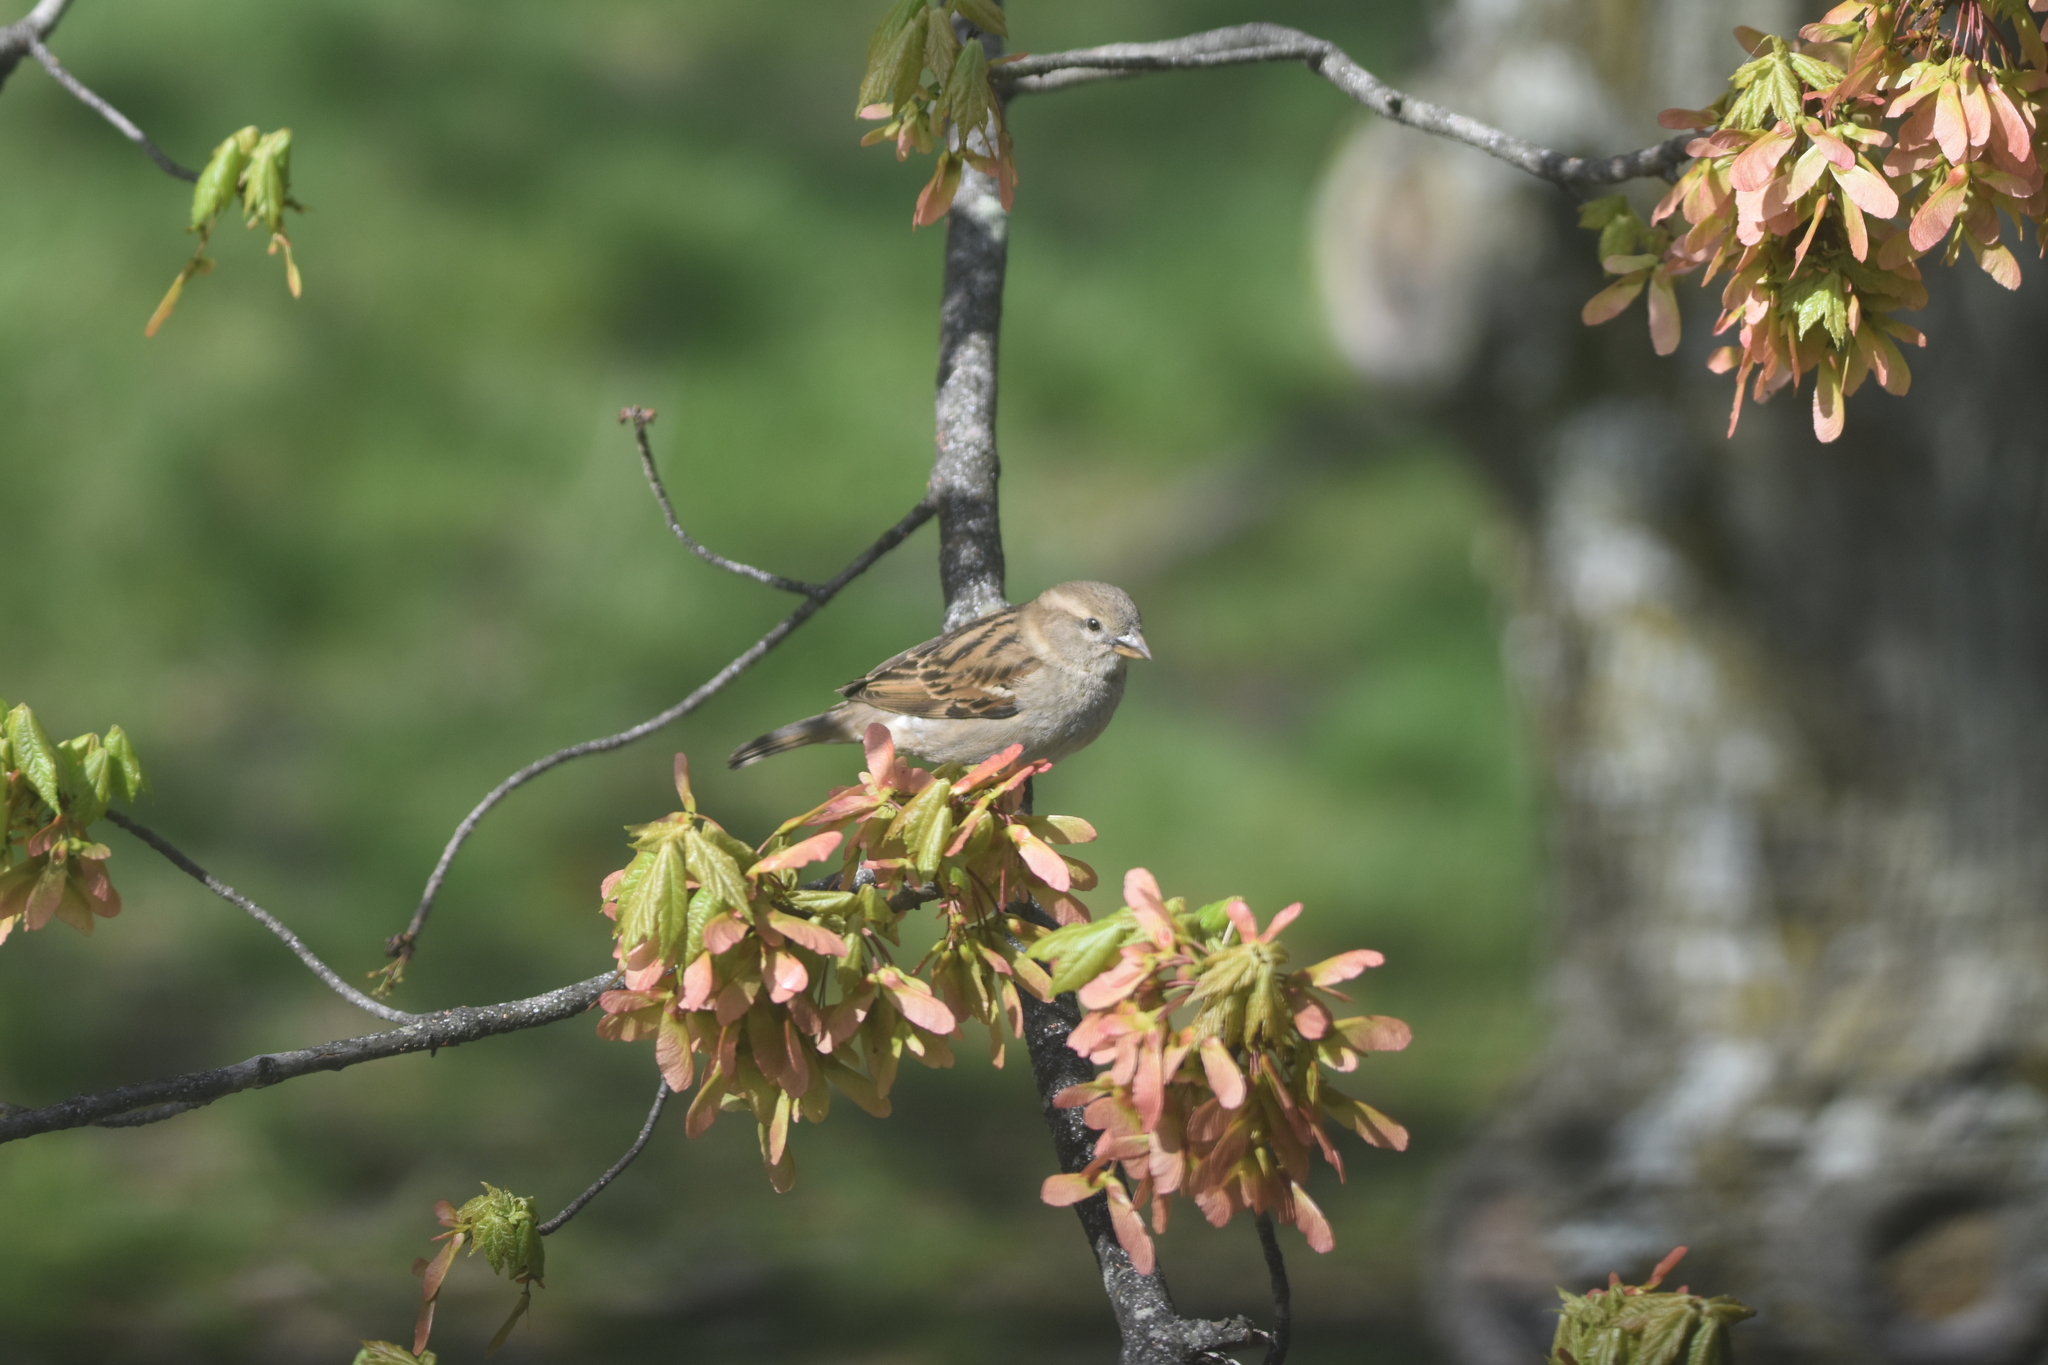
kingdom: Animalia
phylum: Chordata
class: Aves
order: Passeriformes
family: Passeridae
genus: Passer
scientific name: Passer domesticus
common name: House sparrow
